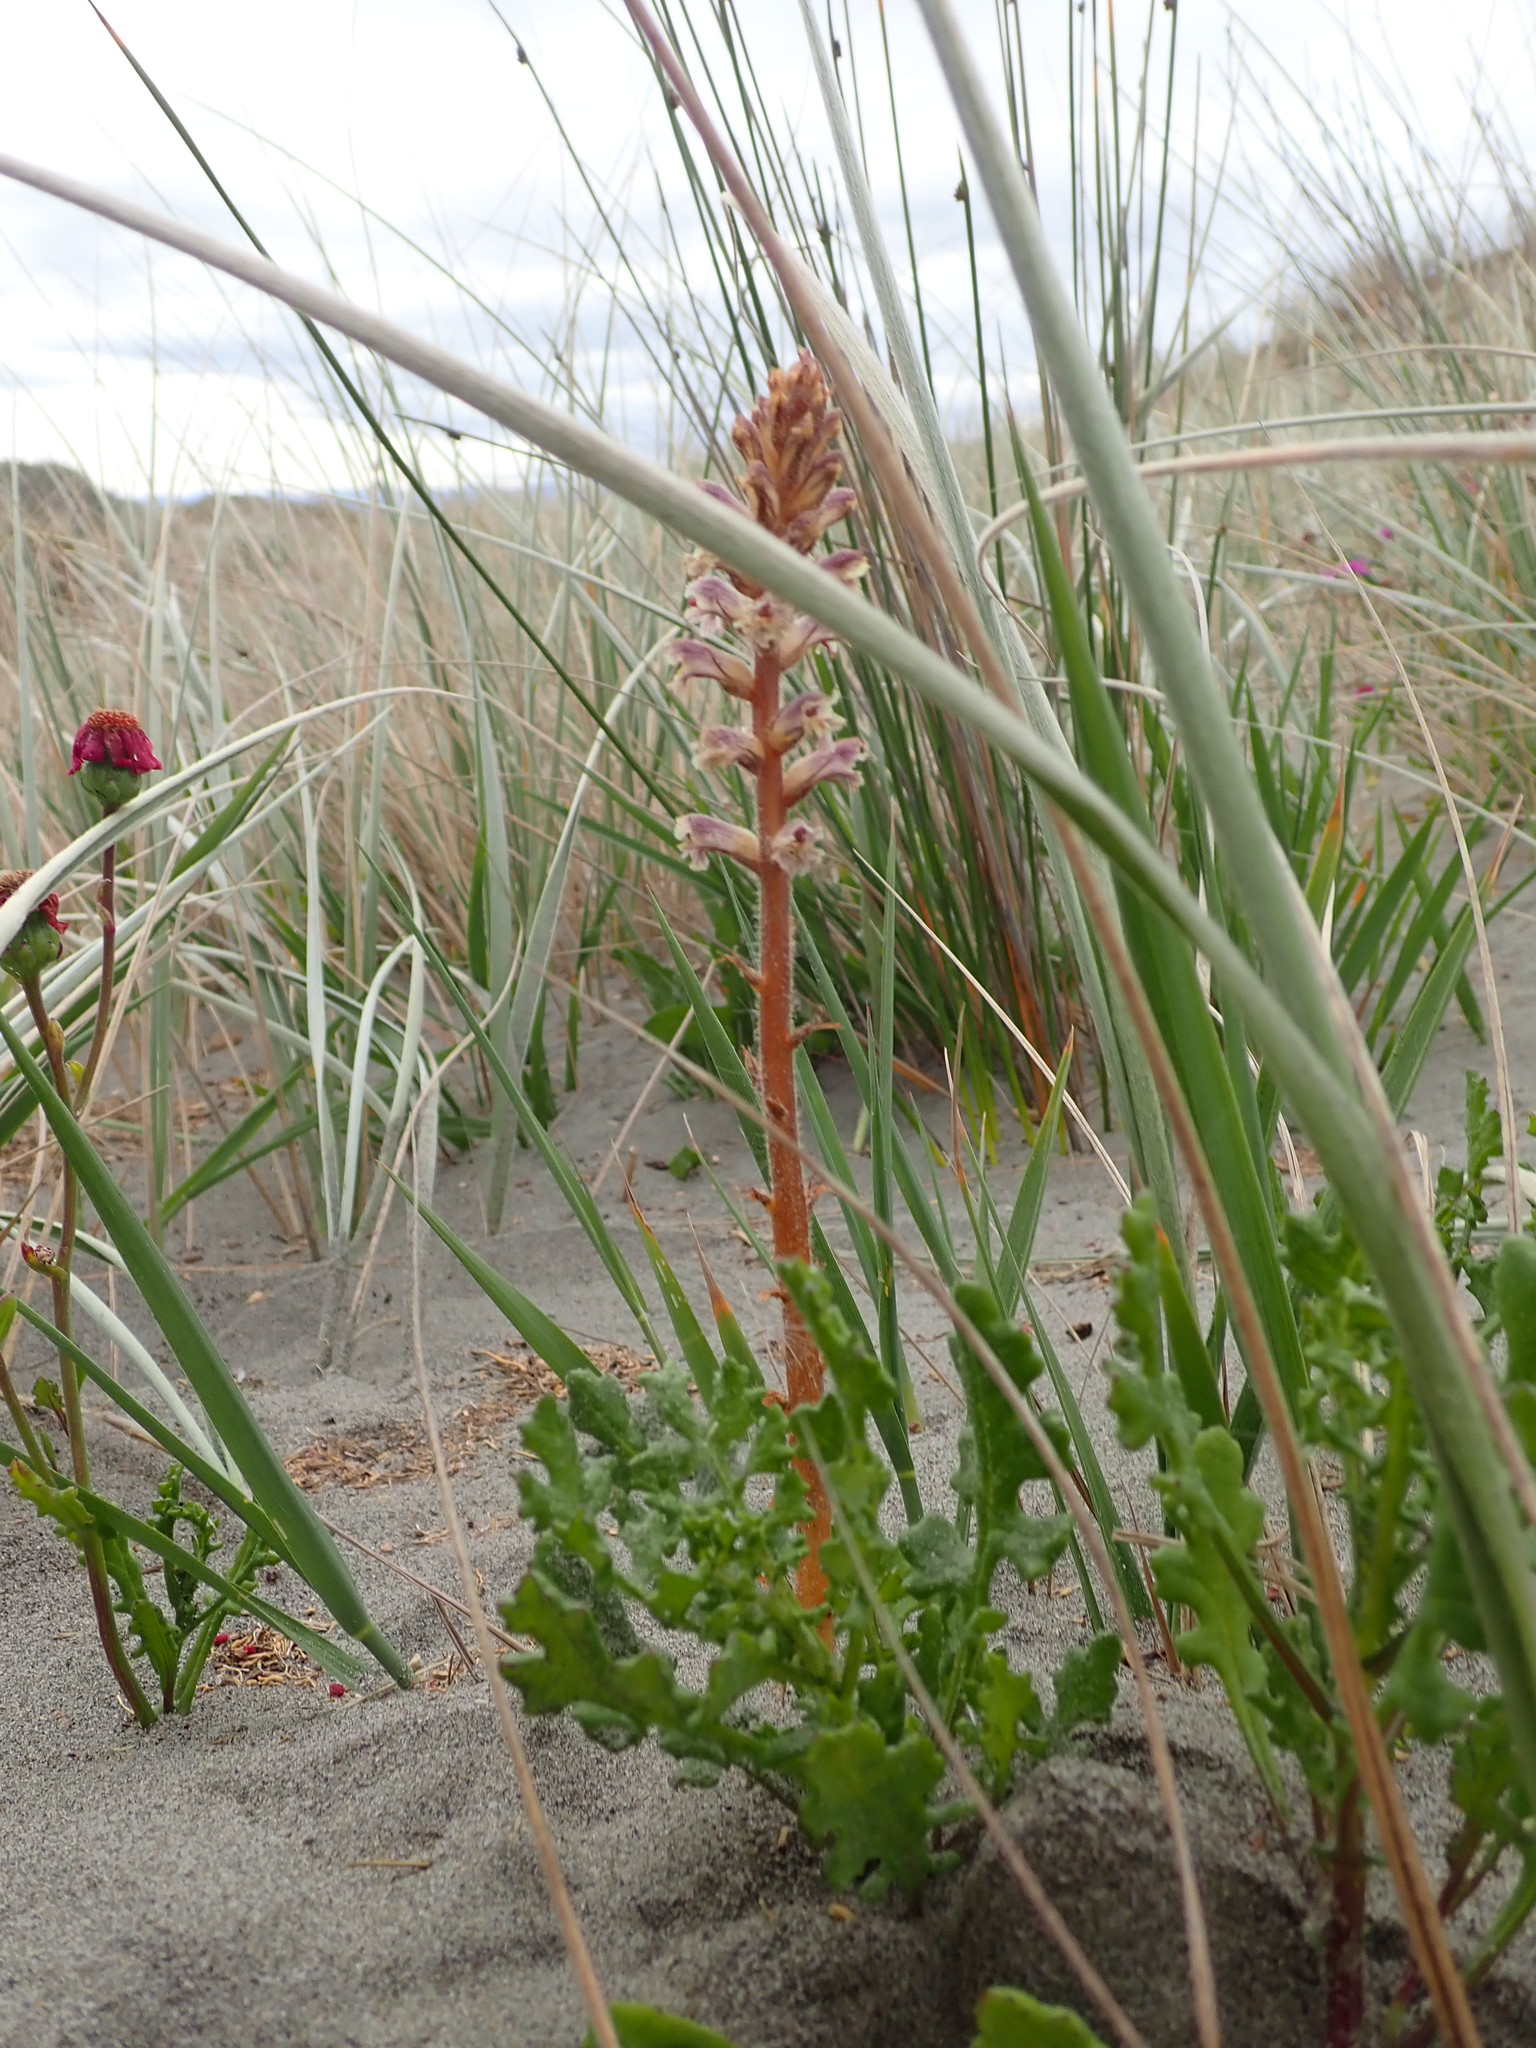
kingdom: Plantae
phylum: Tracheophyta
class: Magnoliopsida
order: Lamiales
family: Orobanchaceae
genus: Orobanche
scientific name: Orobanche minor
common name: Common broomrape
